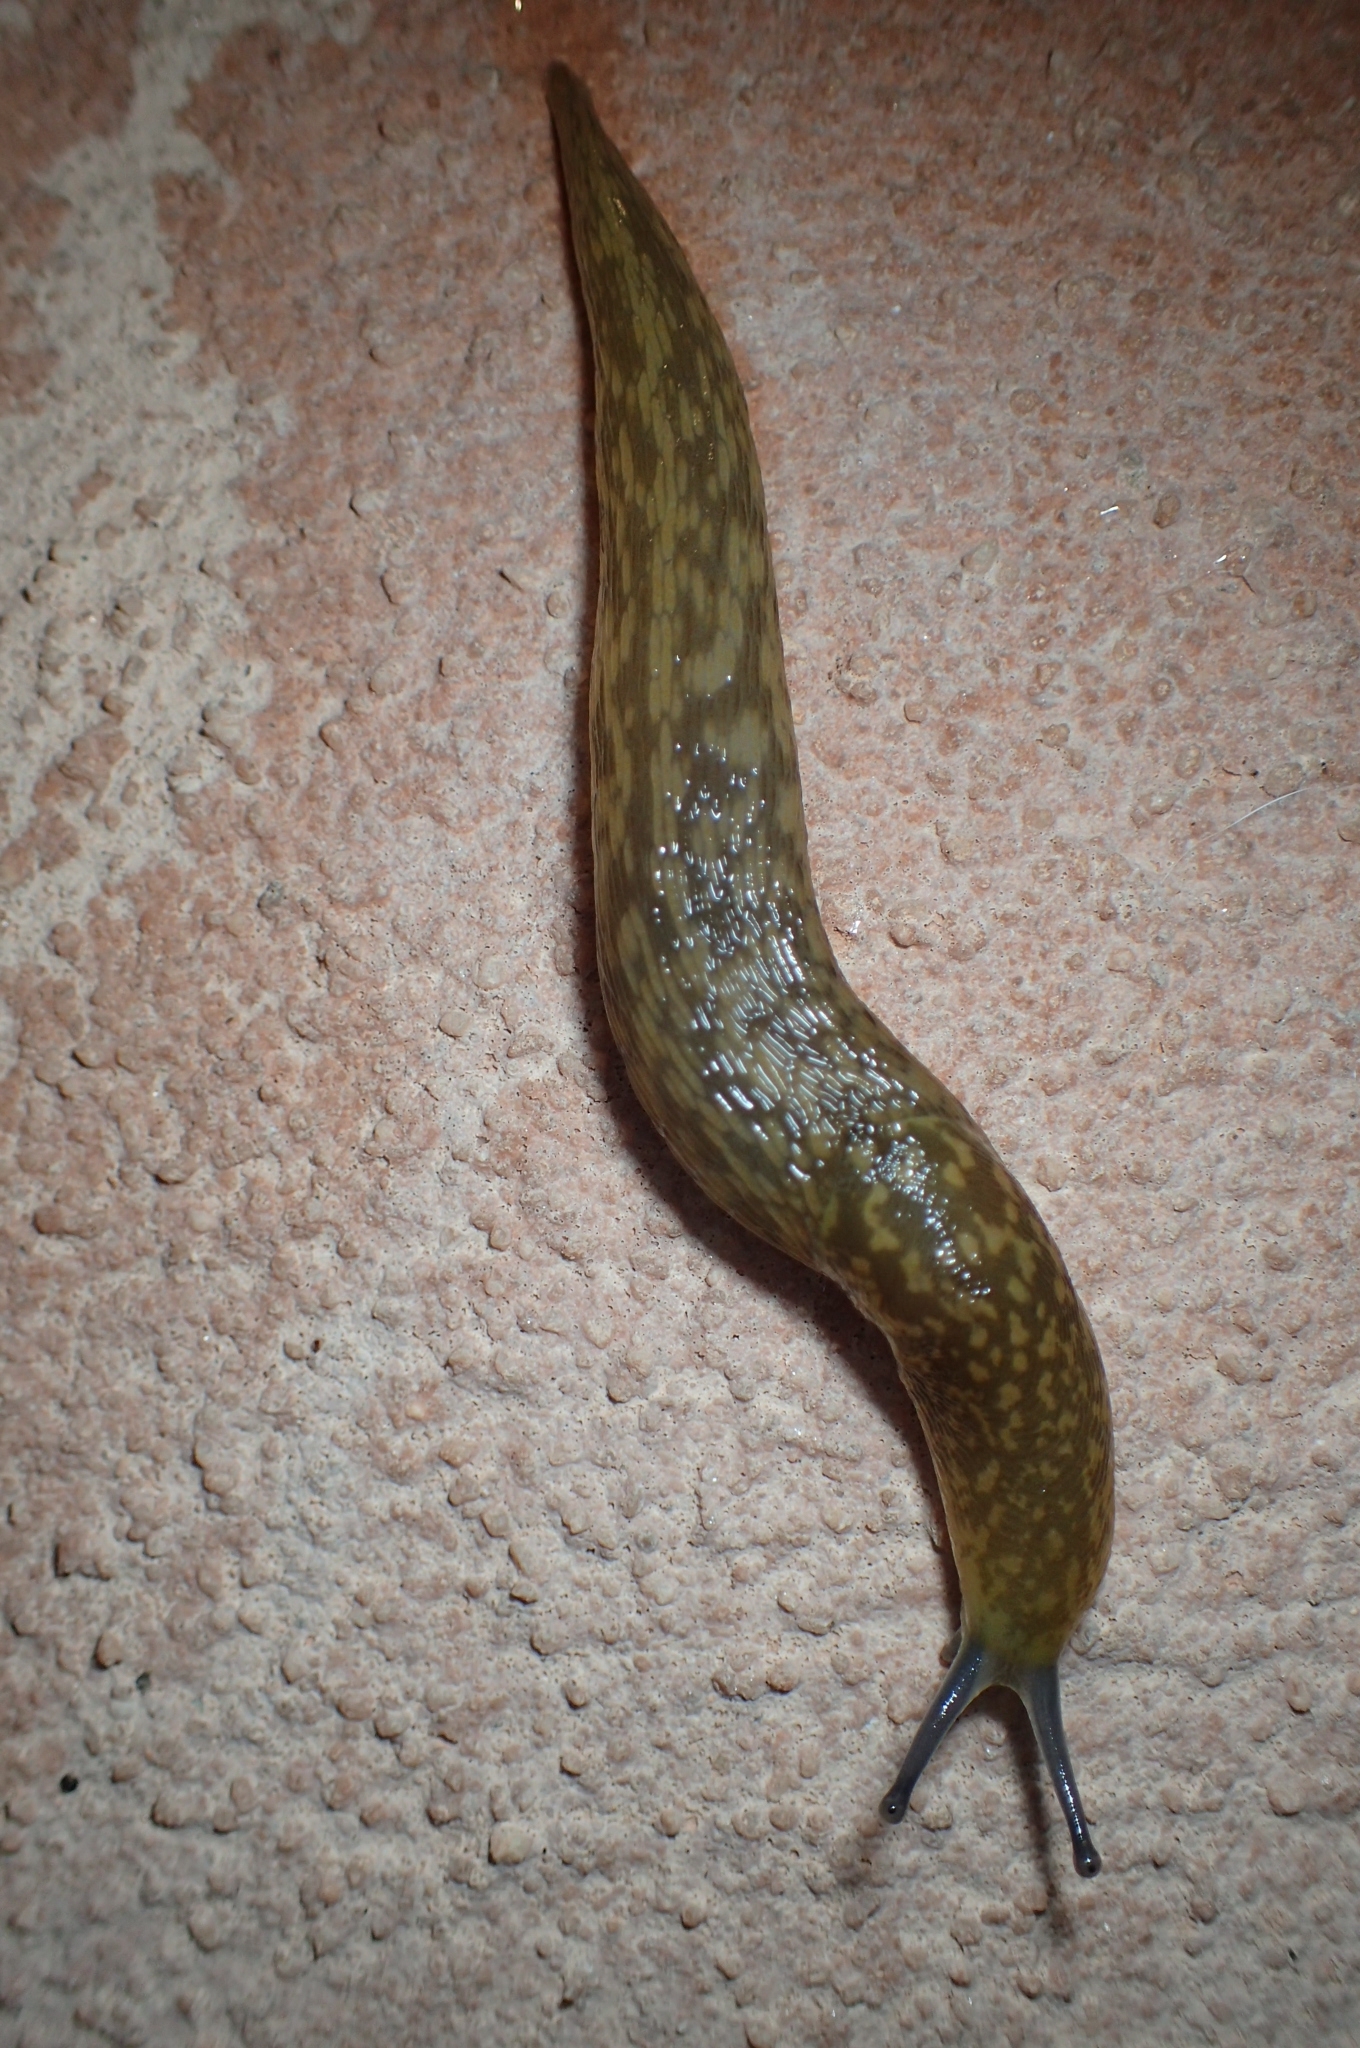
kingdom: Animalia
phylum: Mollusca
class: Gastropoda
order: Stylommatophora
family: Limacidae
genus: Limacus
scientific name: Limacus flavus
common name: Yellow gardenslug
